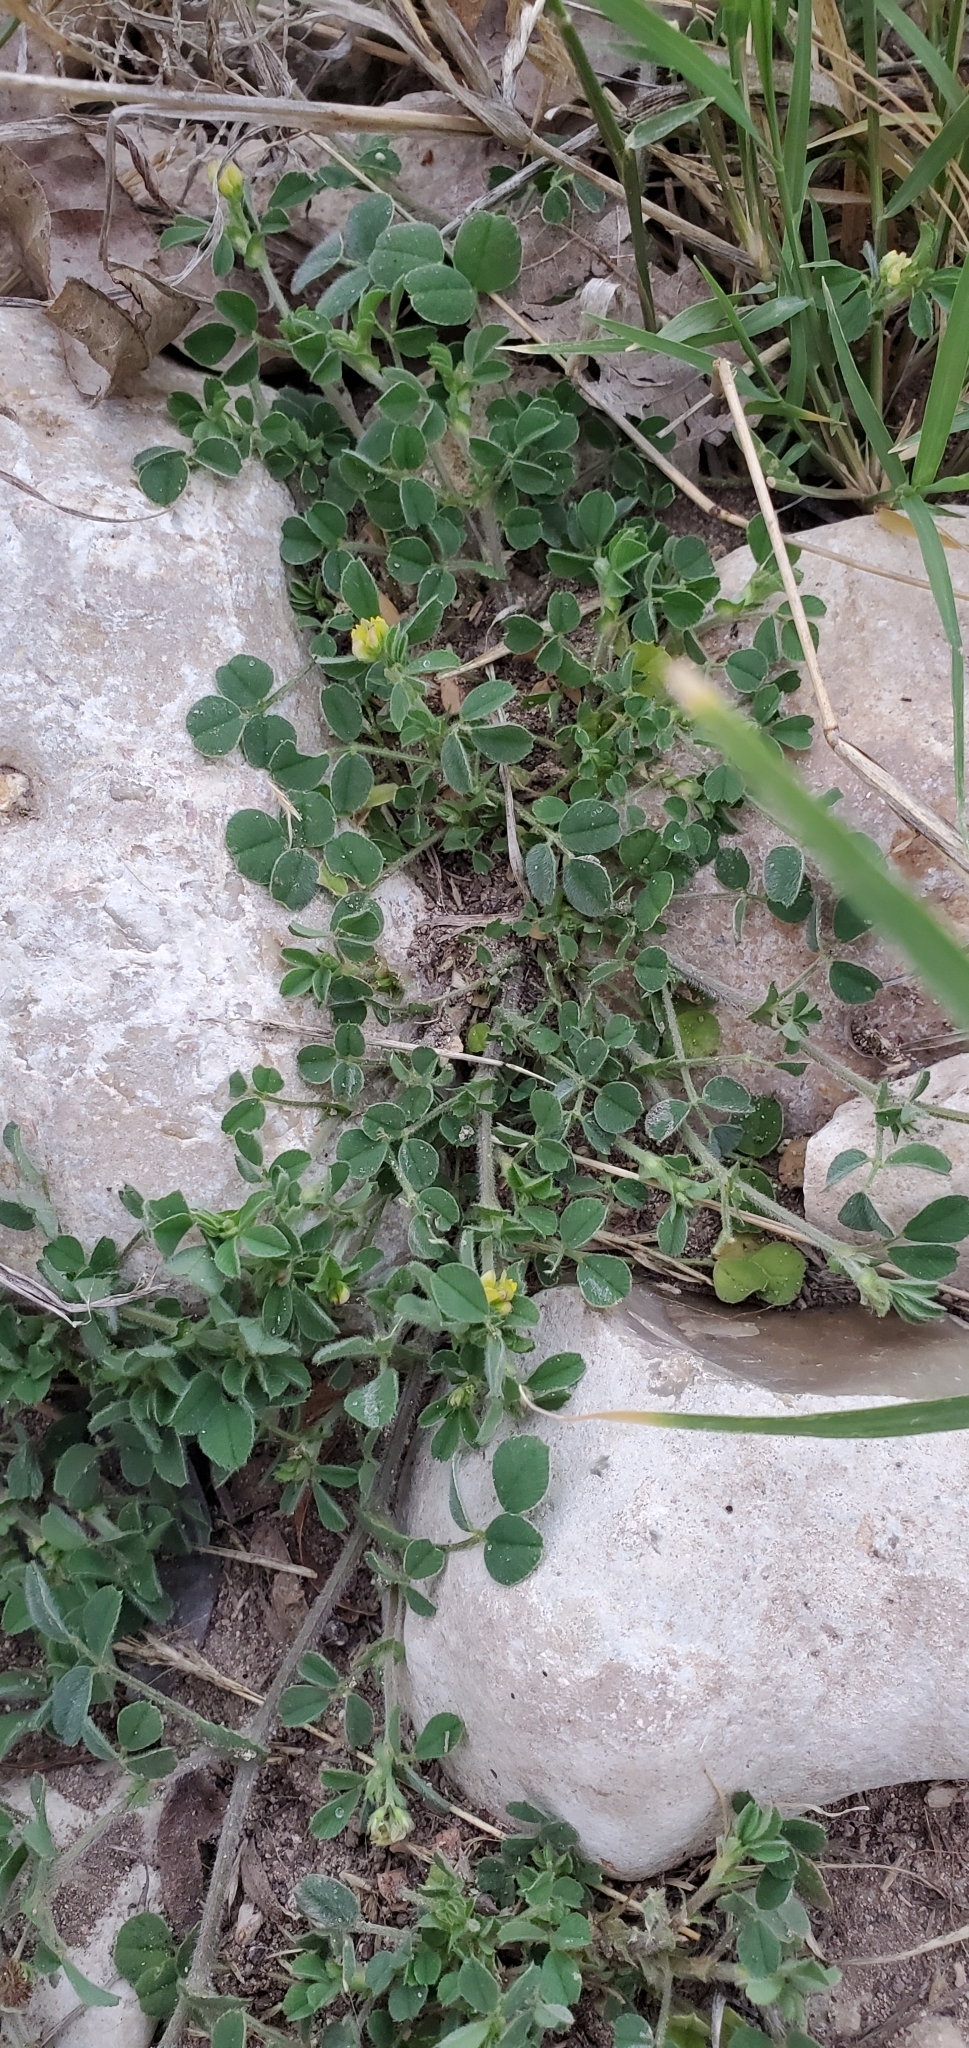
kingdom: Plantae
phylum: Tracheophyta
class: Magnoliopsida
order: Fabales
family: Fabaceae
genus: Medicago
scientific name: Medicago minima
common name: Little bur-clover
